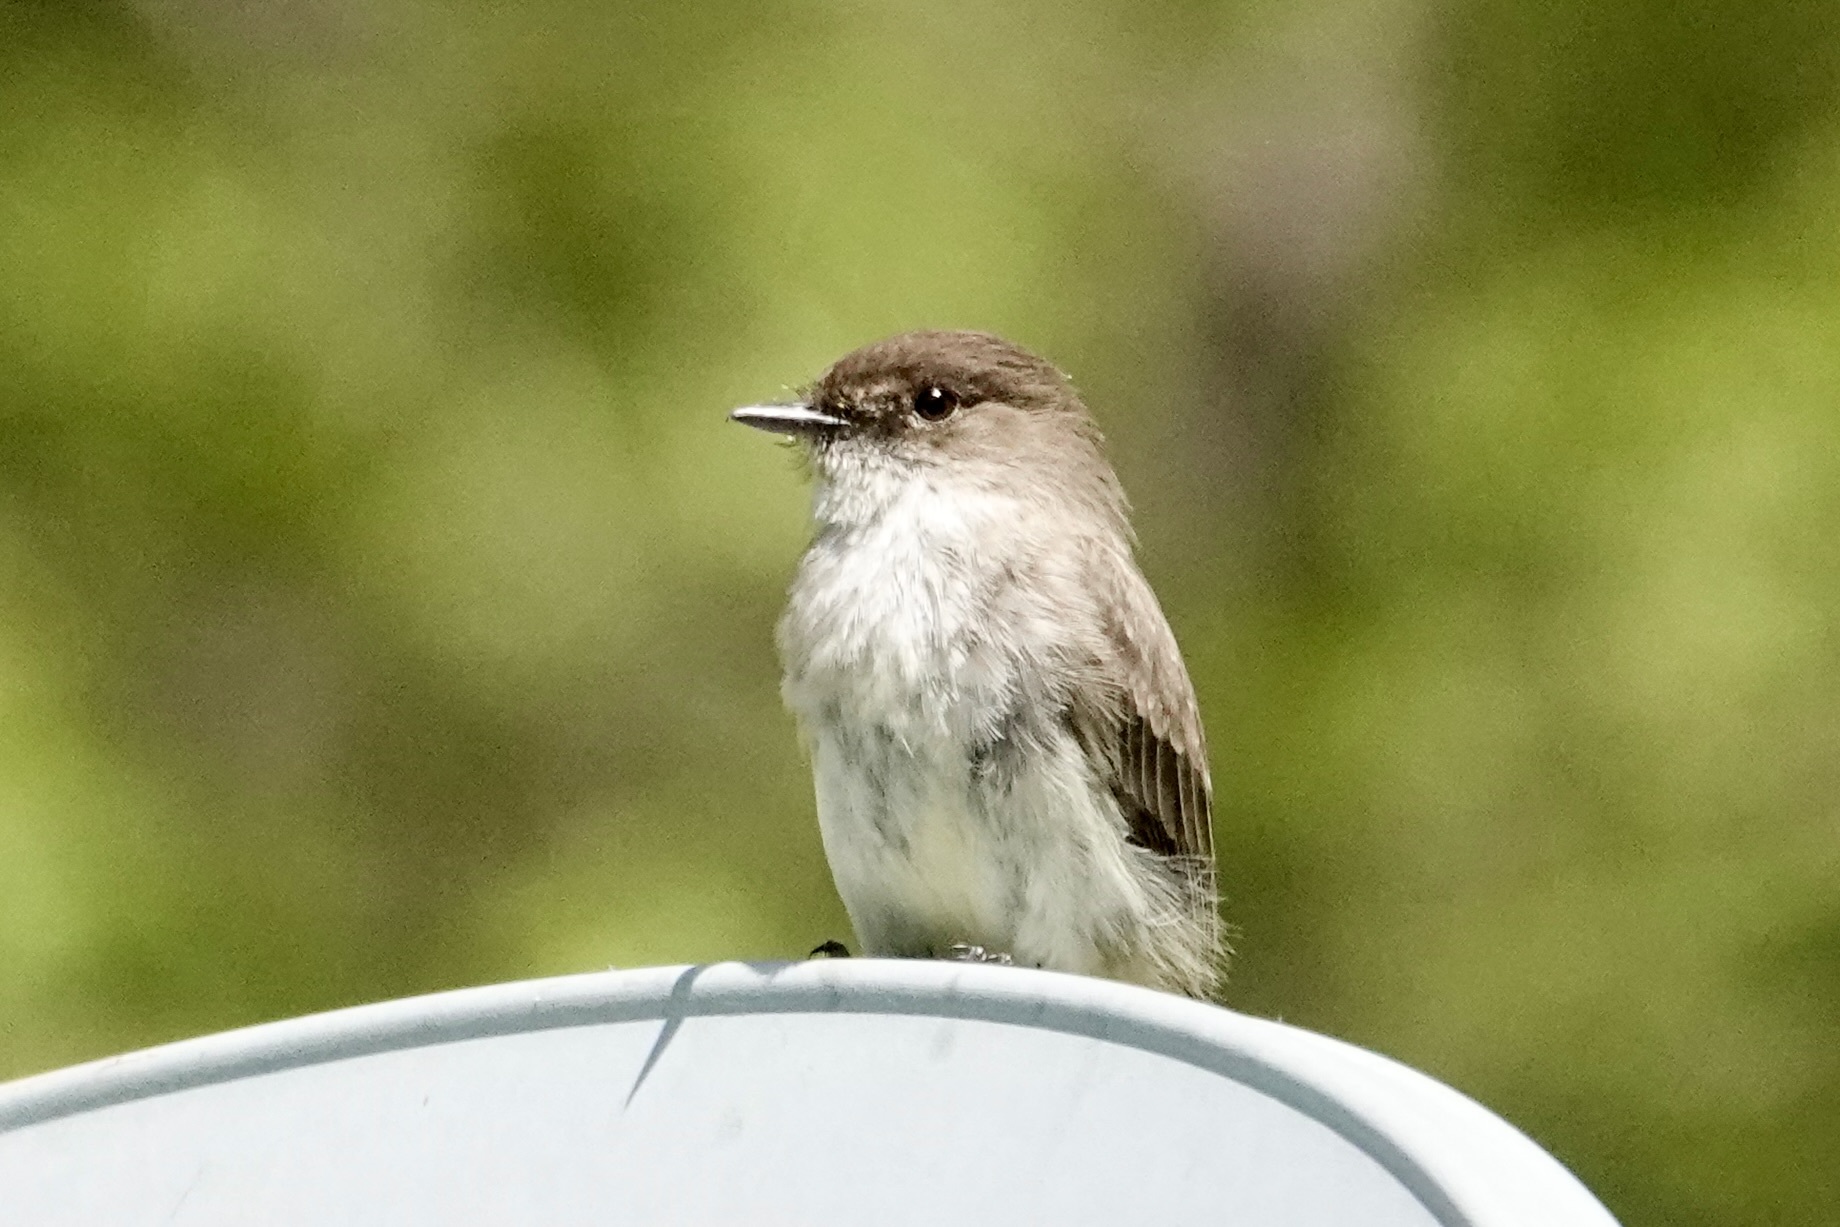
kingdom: Animalia
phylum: Chordata
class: Aves
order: Passeriformes
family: Tyrannidae
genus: Sayornis
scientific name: Sayornis phoebe
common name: Eastern phoebe
